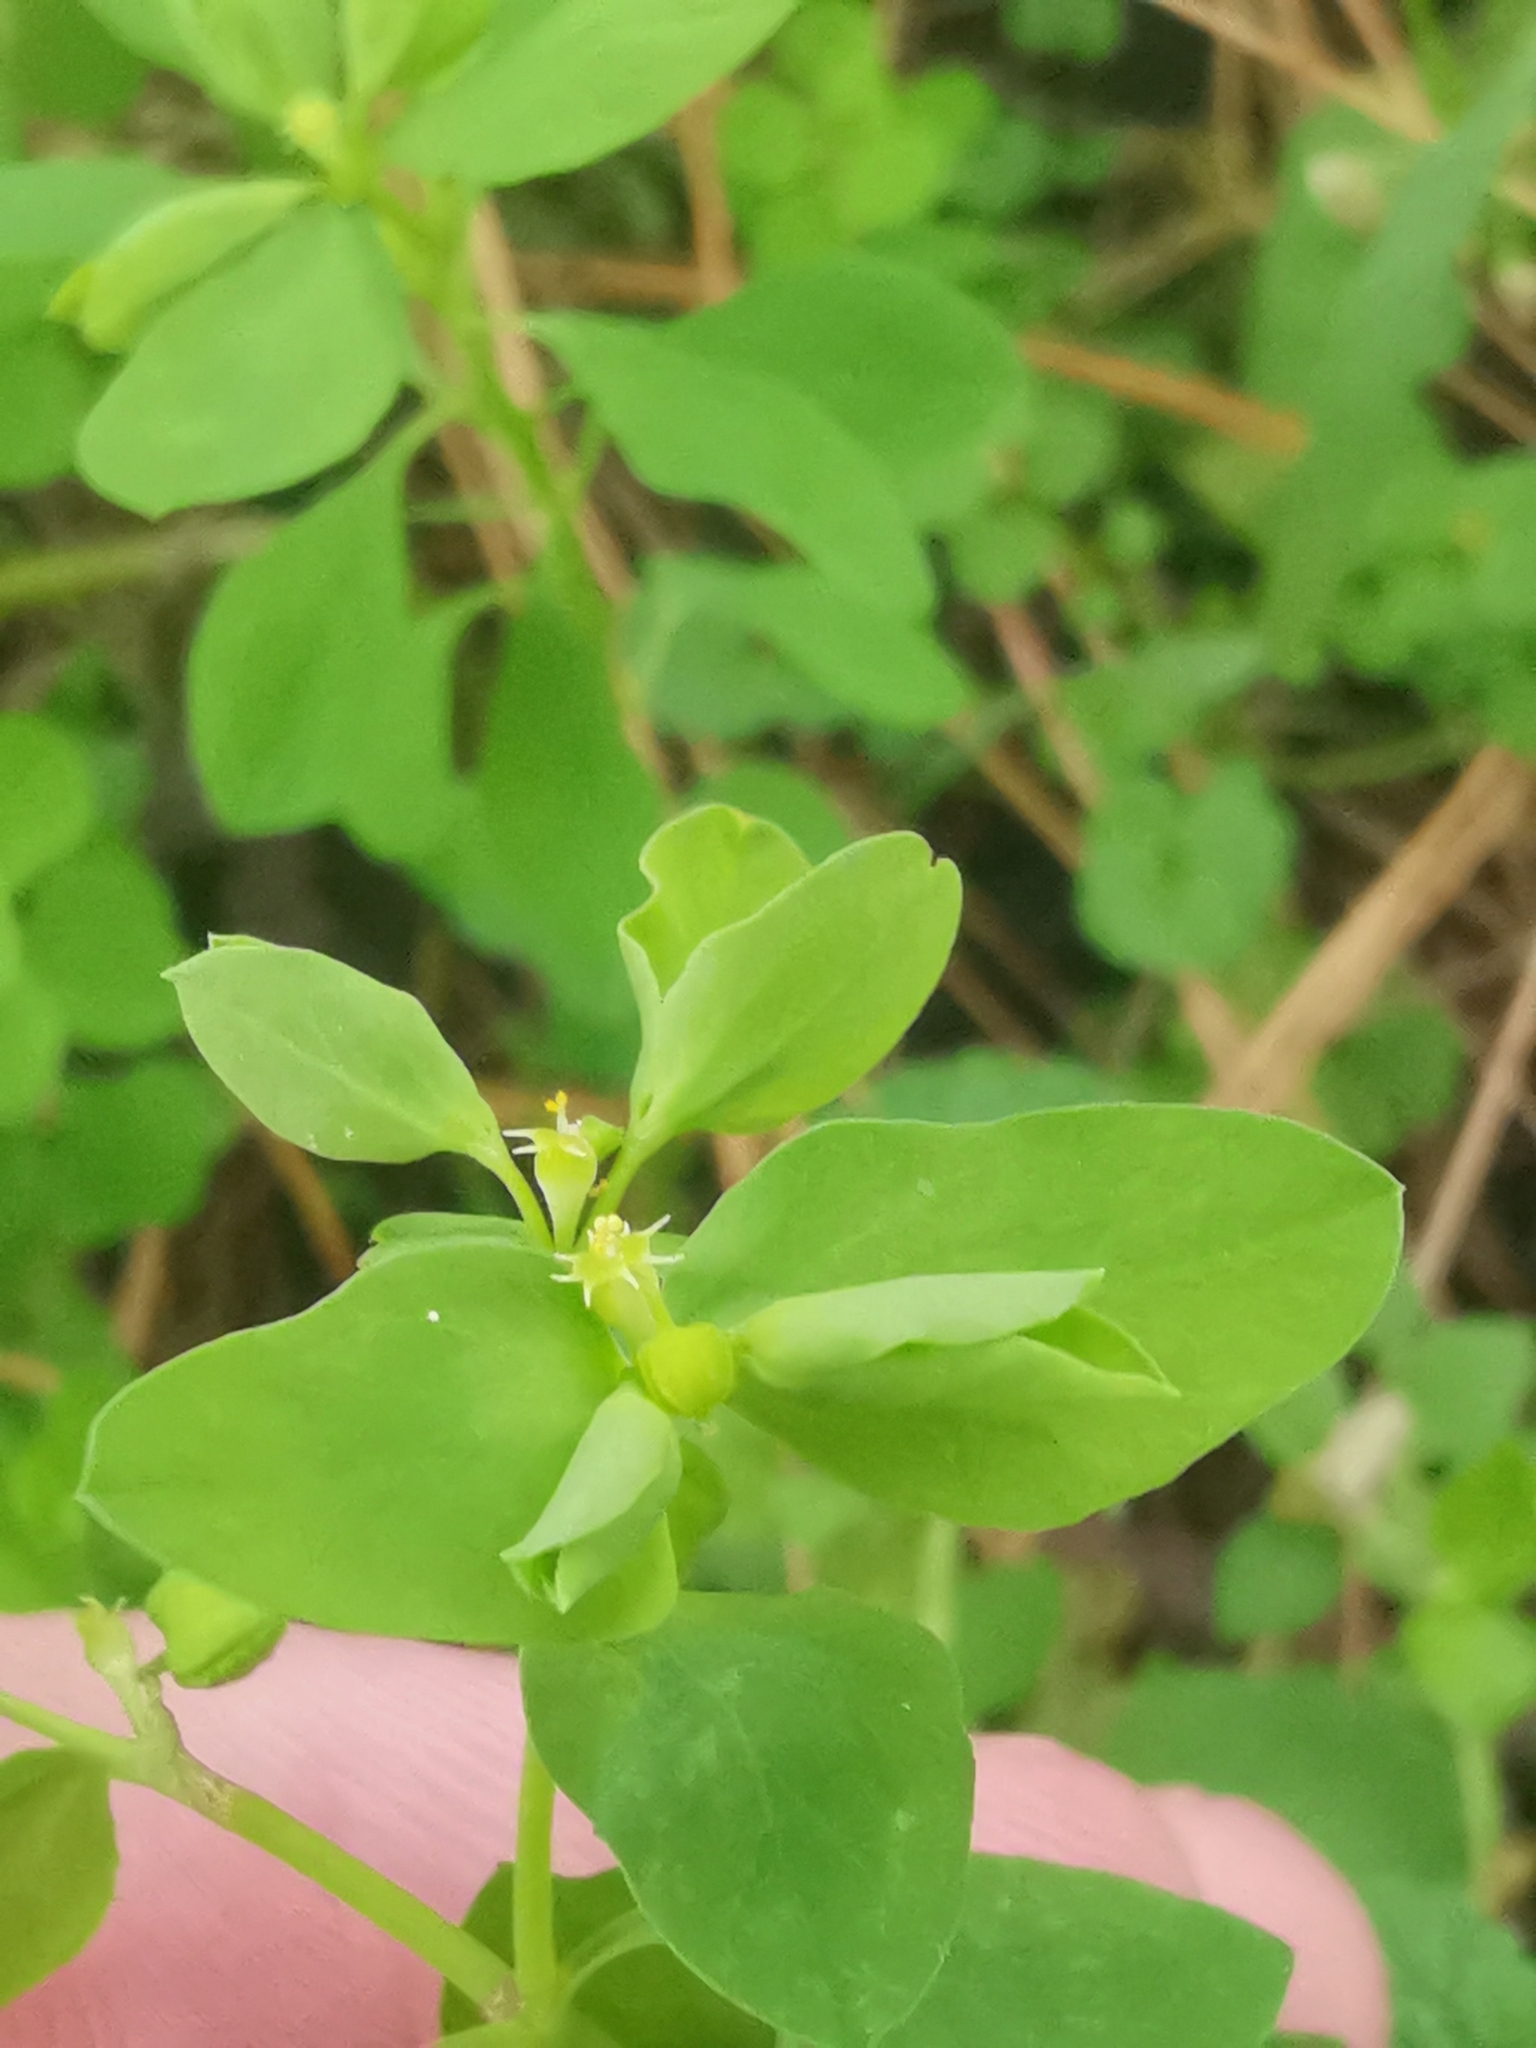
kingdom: Plantae
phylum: Tracheophyta
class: Magnoliopsida
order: Malpighiales
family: Euphorbiaceae
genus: Euphorbia
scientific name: Euphorbia peplus
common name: Petty spurge
